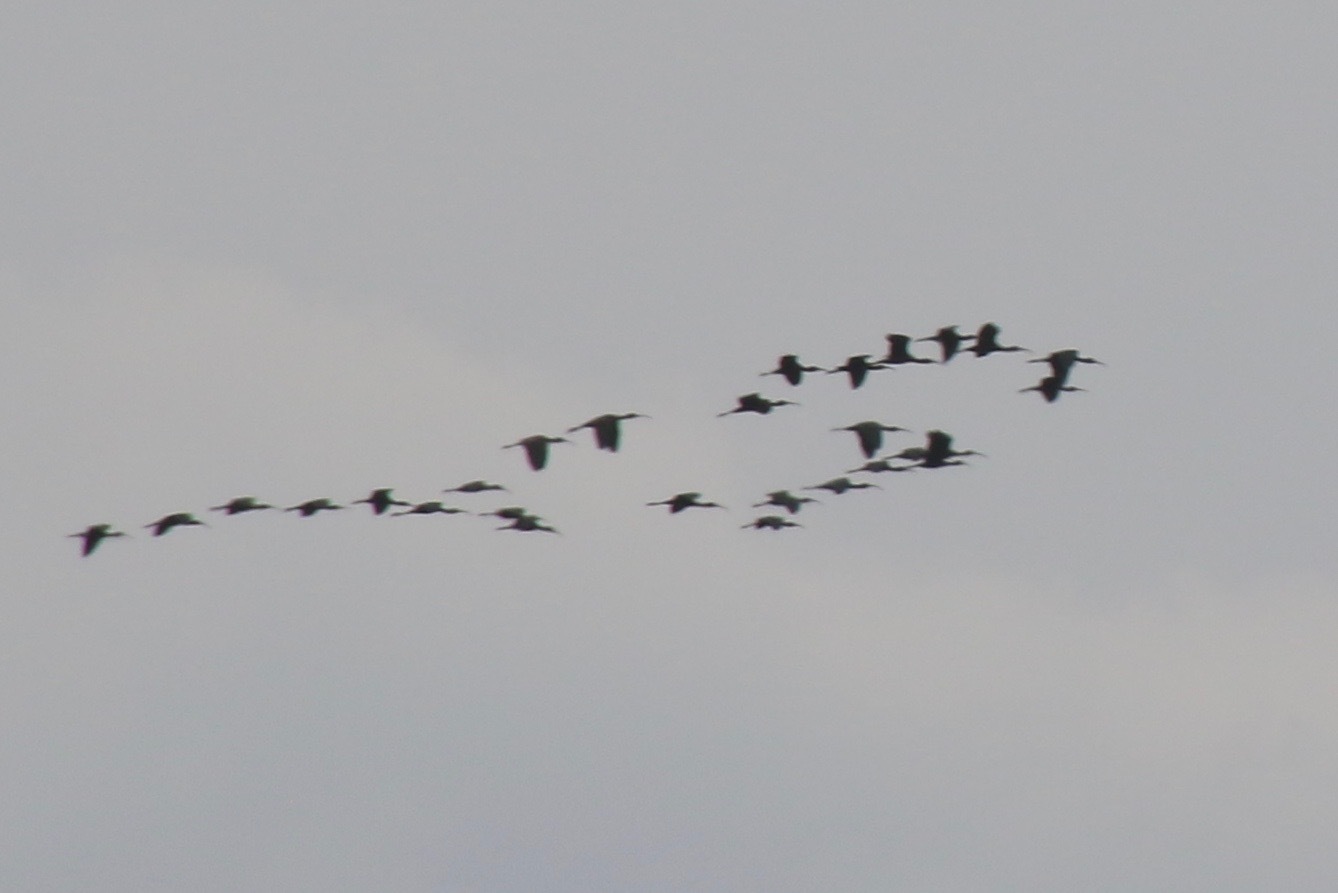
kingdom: Animalia
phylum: Chordata
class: Aves
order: Pelecaniformes
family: Threskiornithidae
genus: Plegadis
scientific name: Plegadis falcinellus
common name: Glossy ibis
